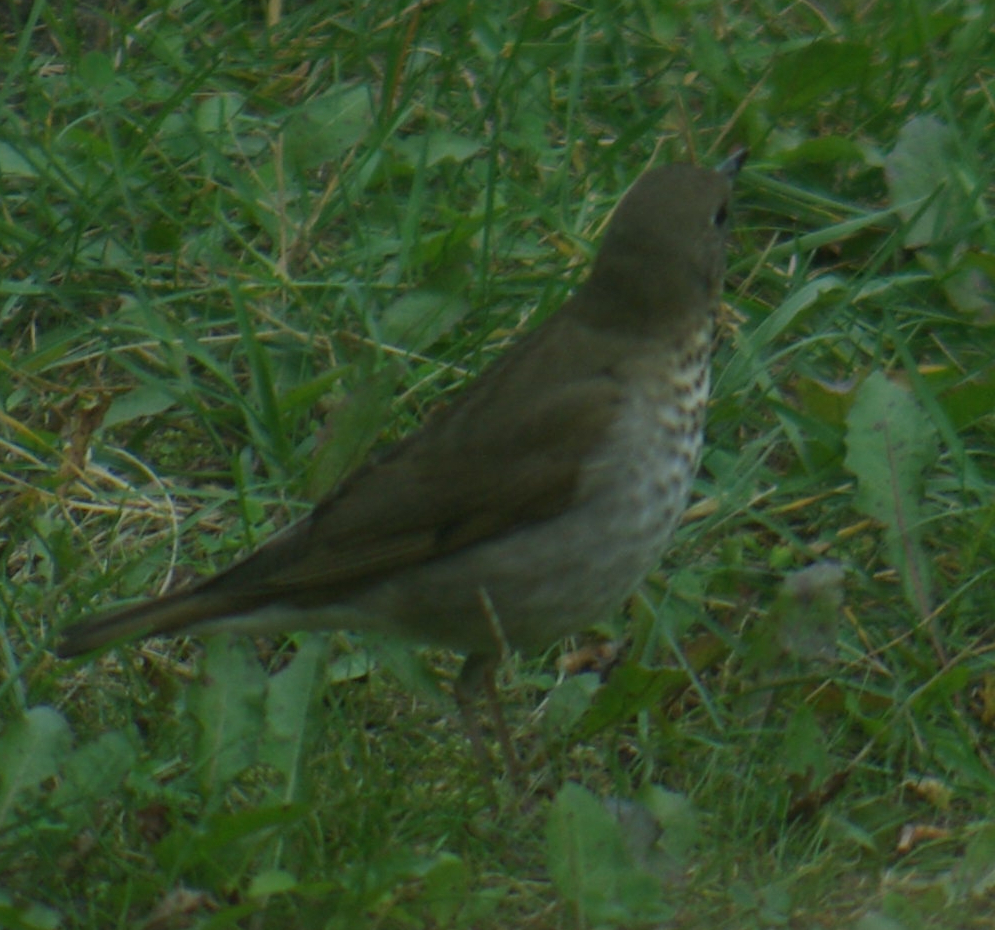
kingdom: Animalia
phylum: Chordata
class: Aves
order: Passeriformes
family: Turdidae
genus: Catharus
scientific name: Catharus ustulatus
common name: Swainson's thrush
